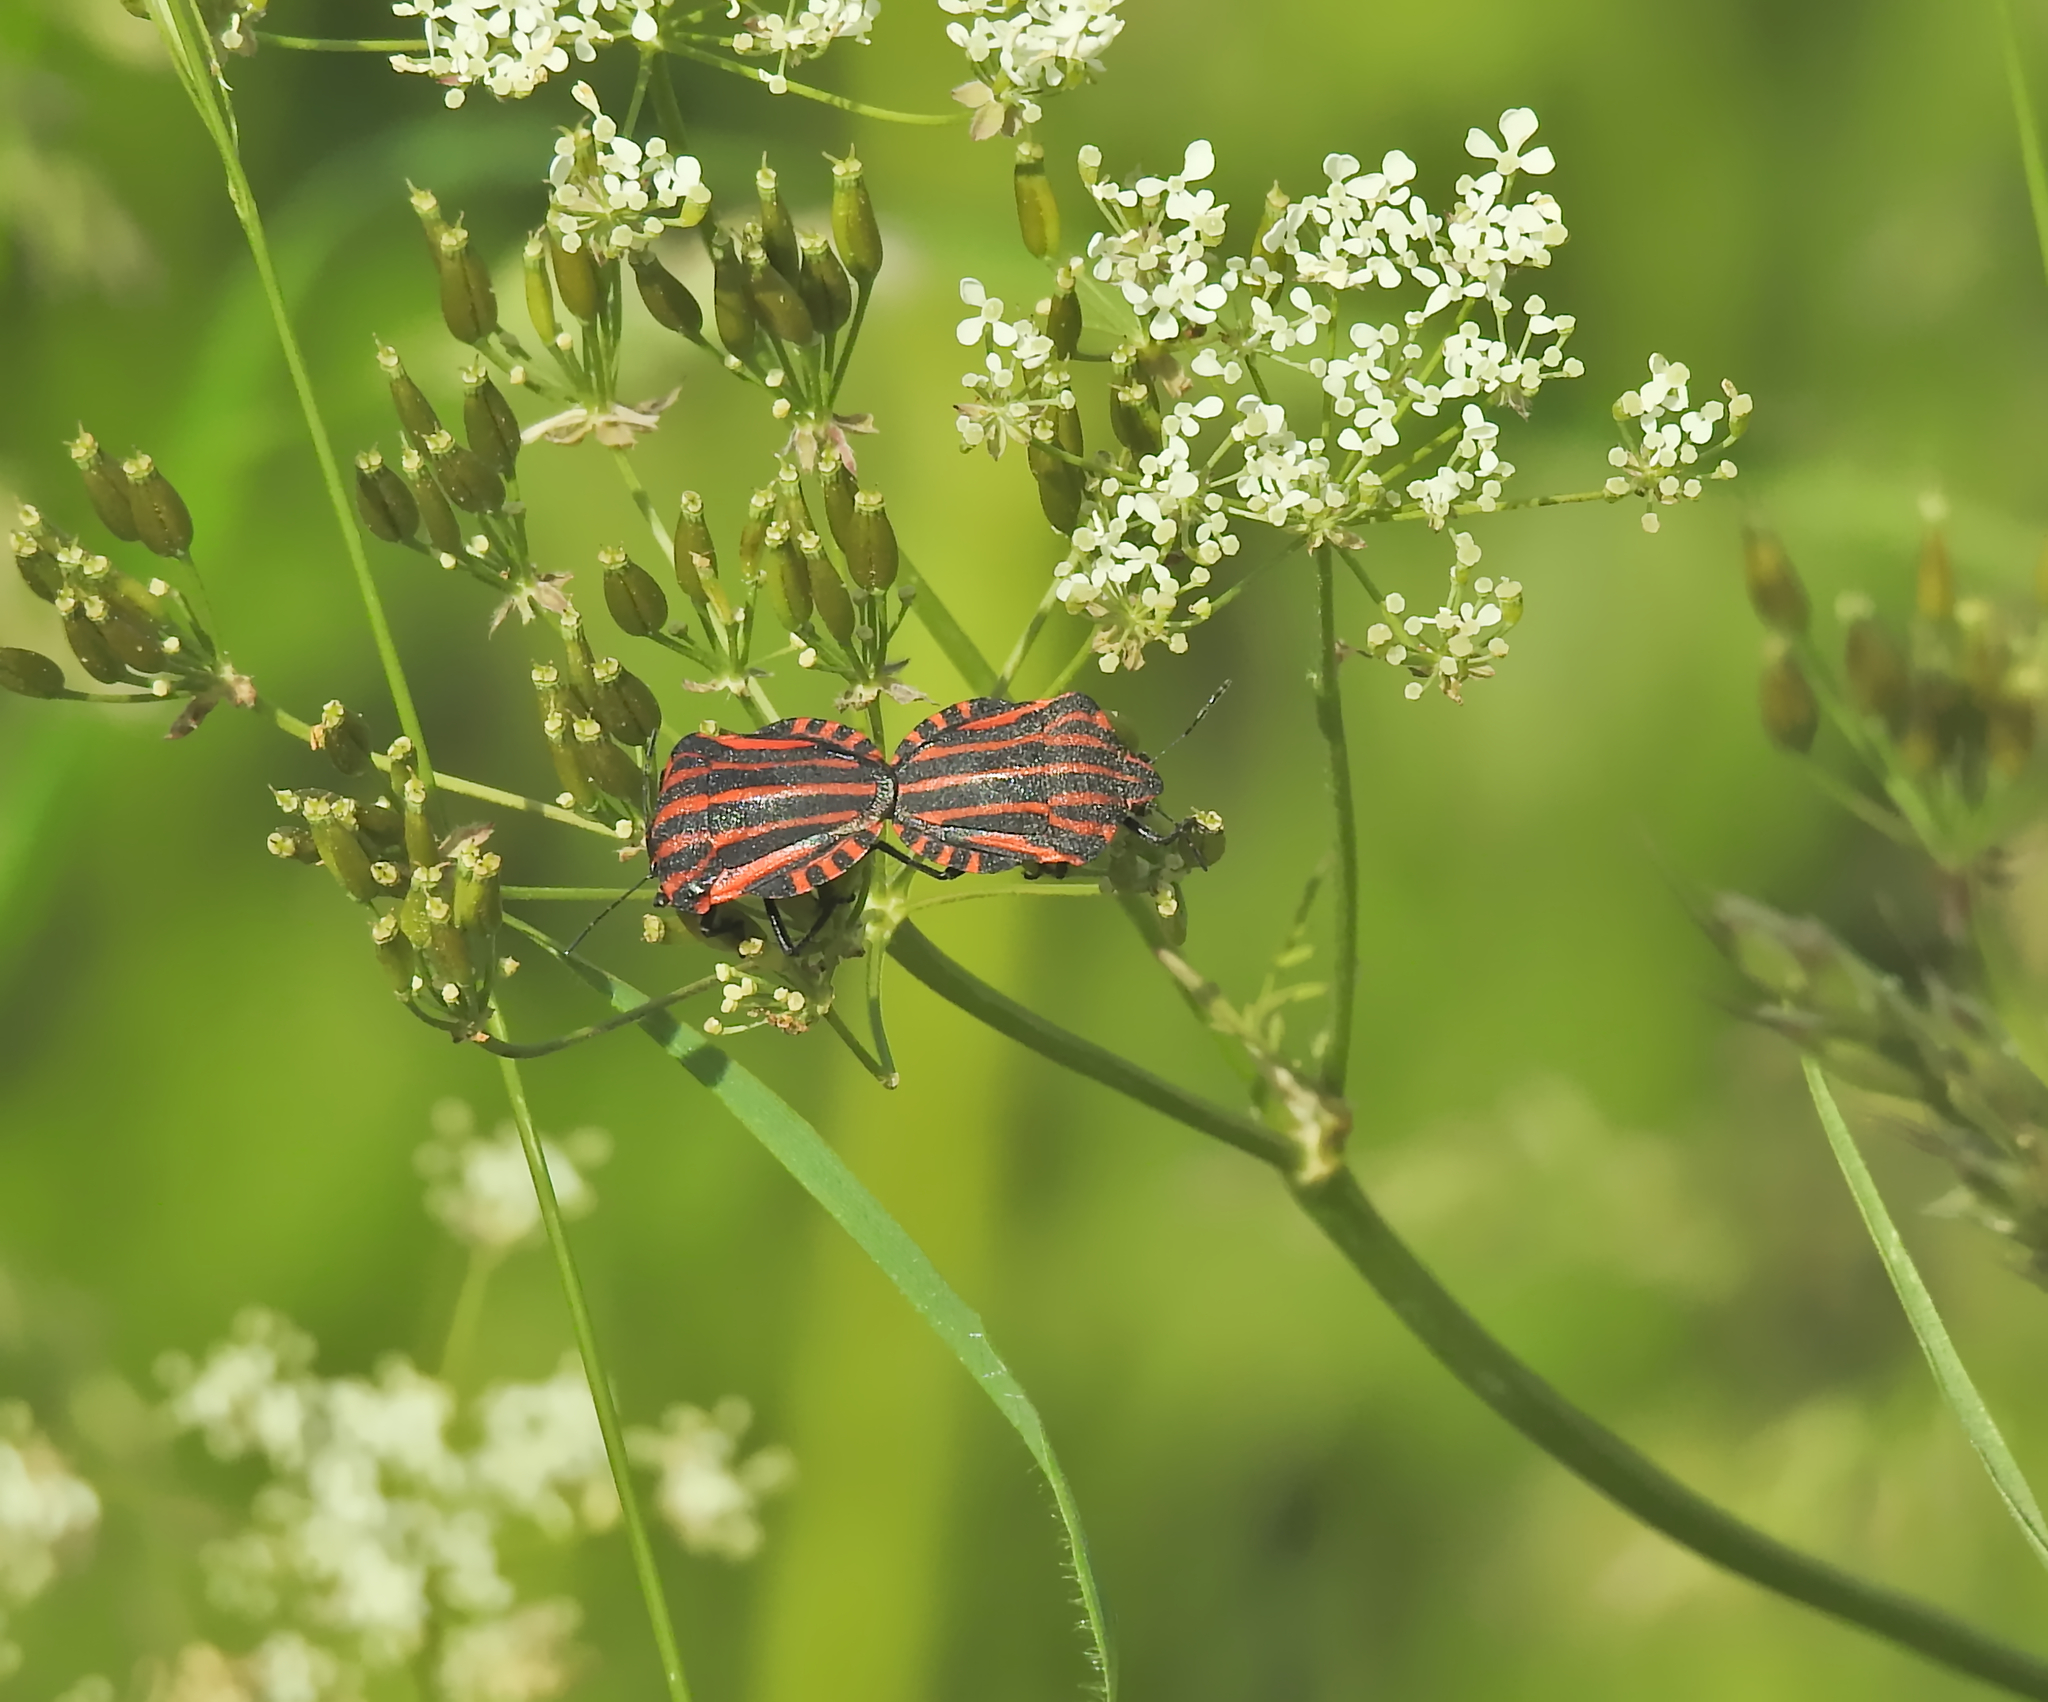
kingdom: Animalia
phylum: Arthropoda
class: Insecta
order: Hemiptera
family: Pentatomidae
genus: Graphosoma
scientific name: Graphosoma italicum
